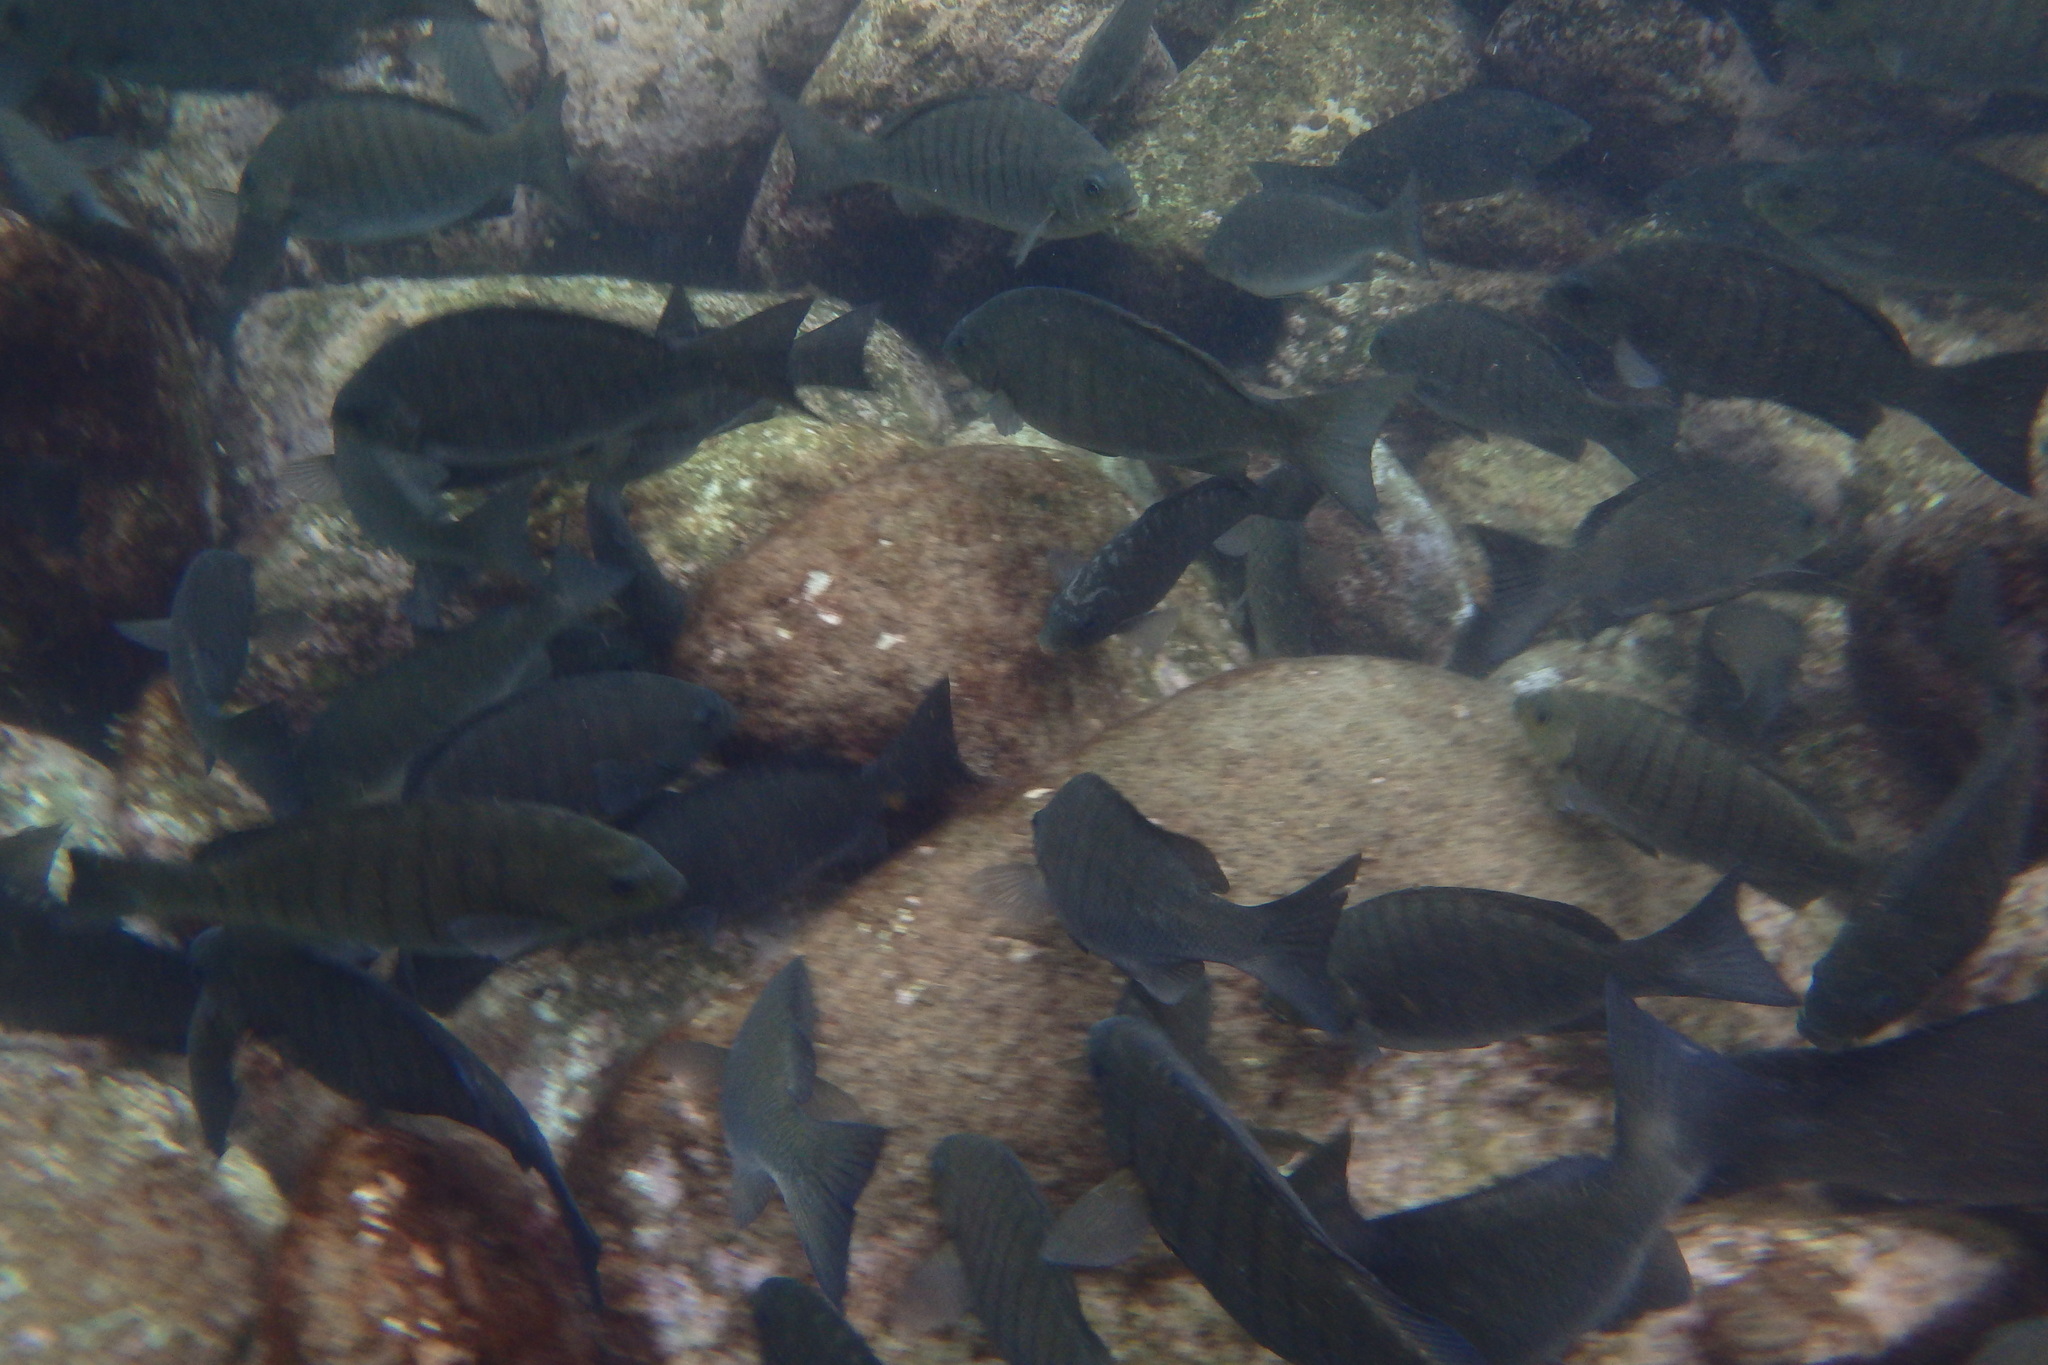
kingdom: Animalia
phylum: Chordata
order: Perciformes
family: Kyphosidae
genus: Girella
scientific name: Girella tricuspidata
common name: Parore
